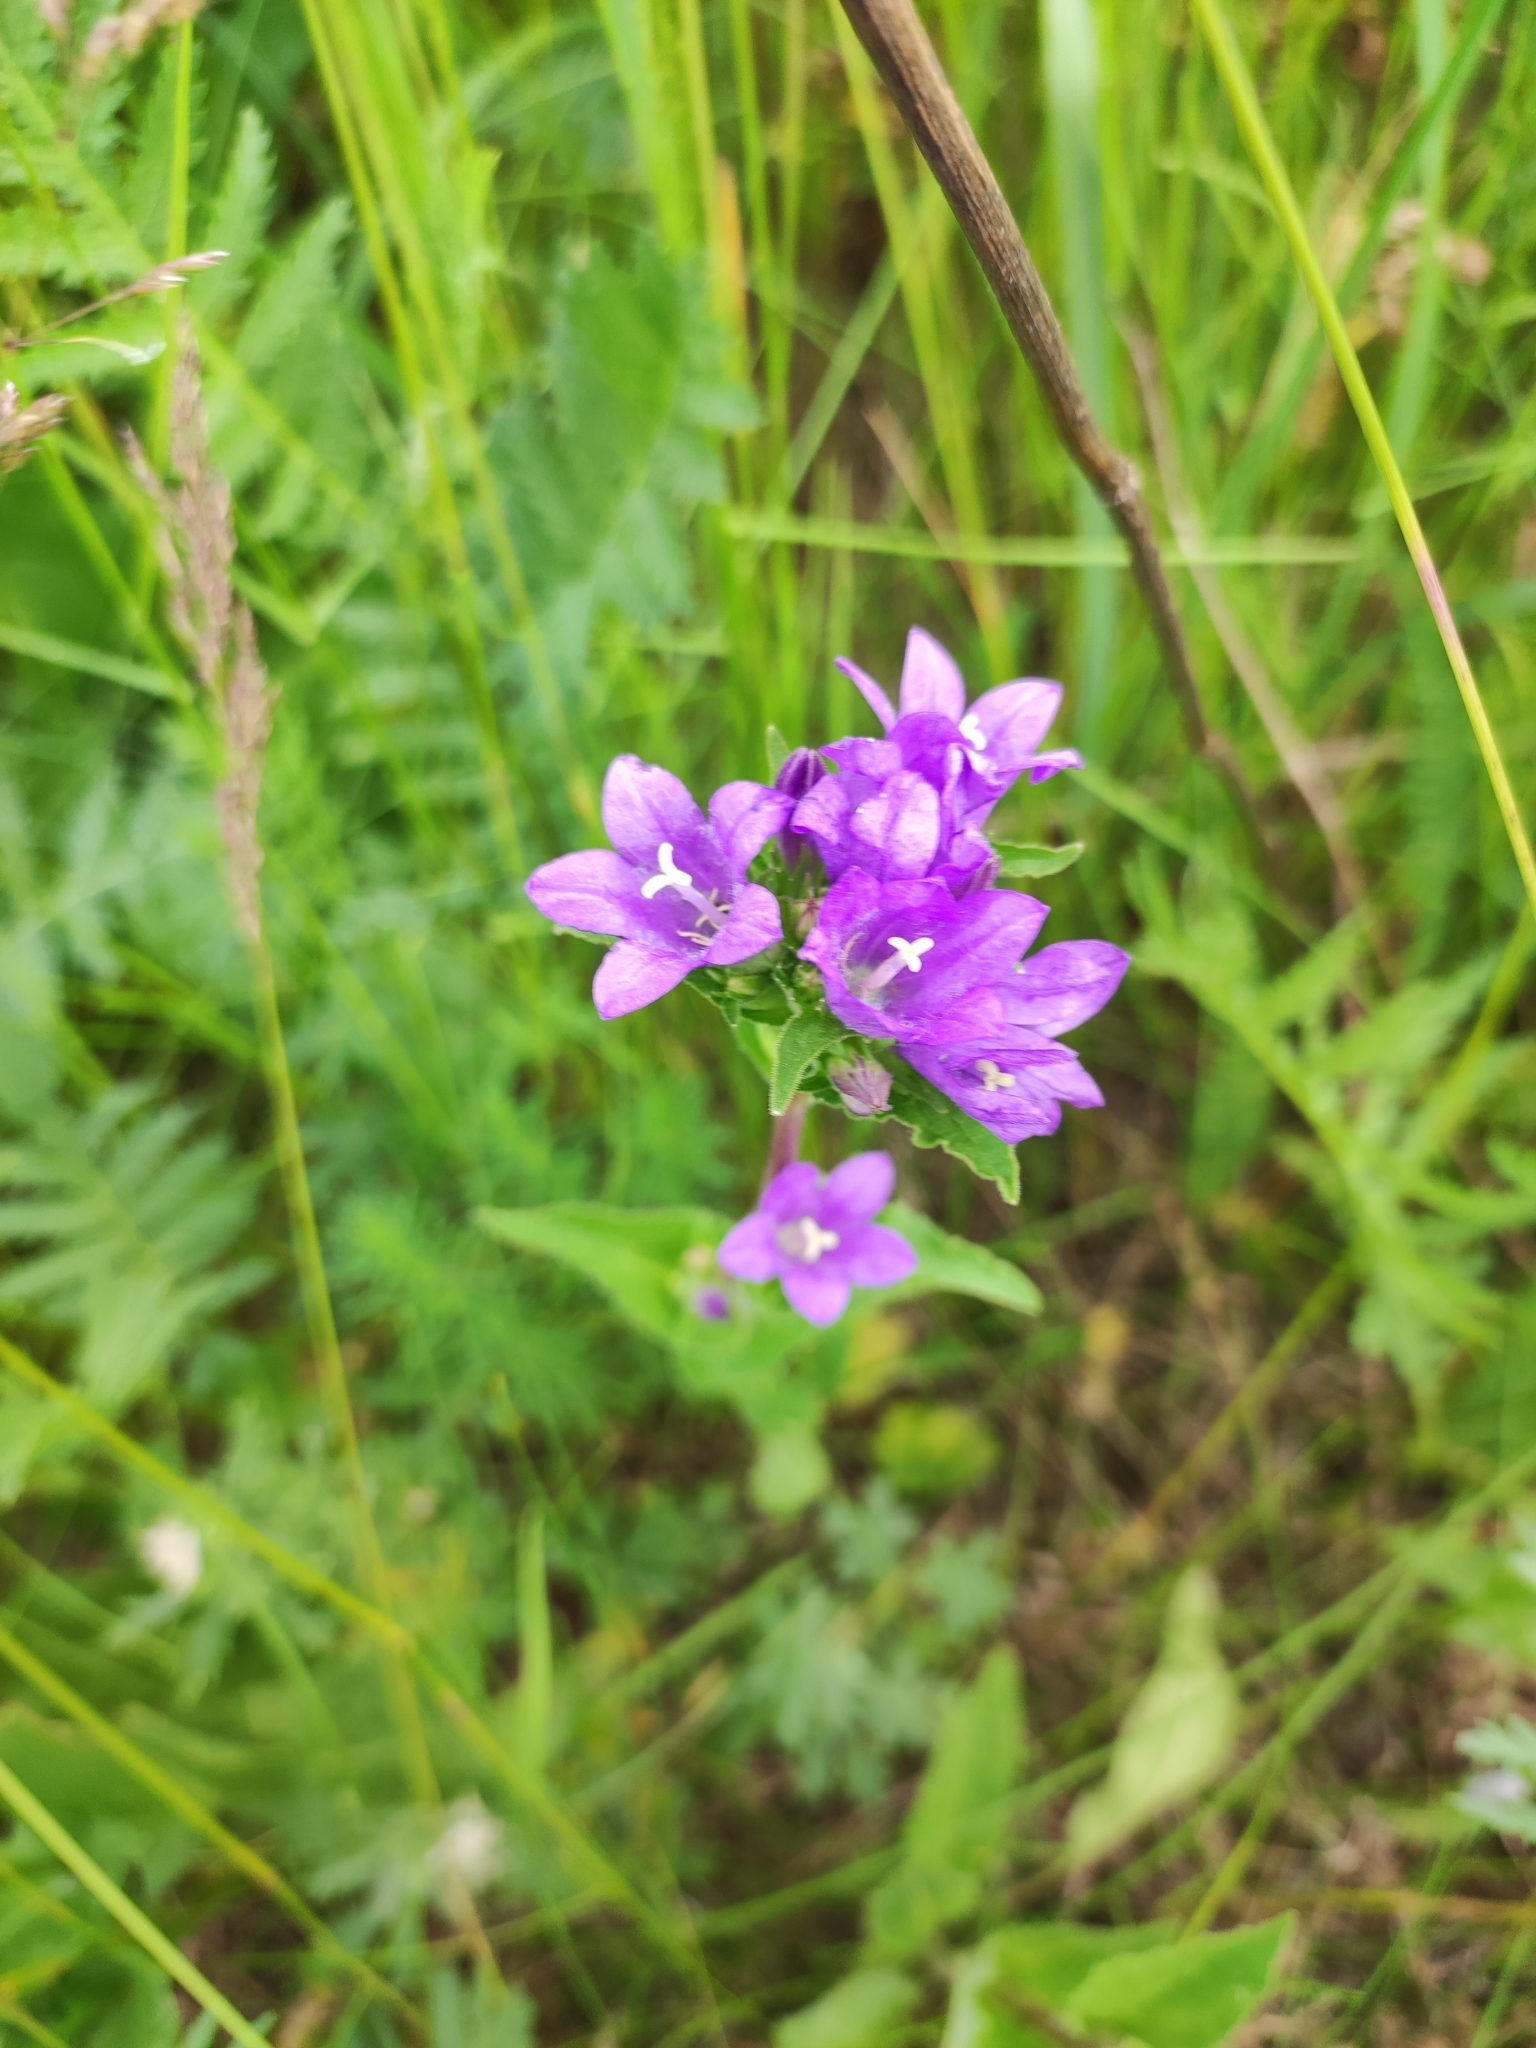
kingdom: Plantae
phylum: Tracheophyta
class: Magnoliopsida
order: Asterales
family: Campanulaceae
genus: Campanula
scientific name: Campanula glomerata
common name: Clustered bellflower
